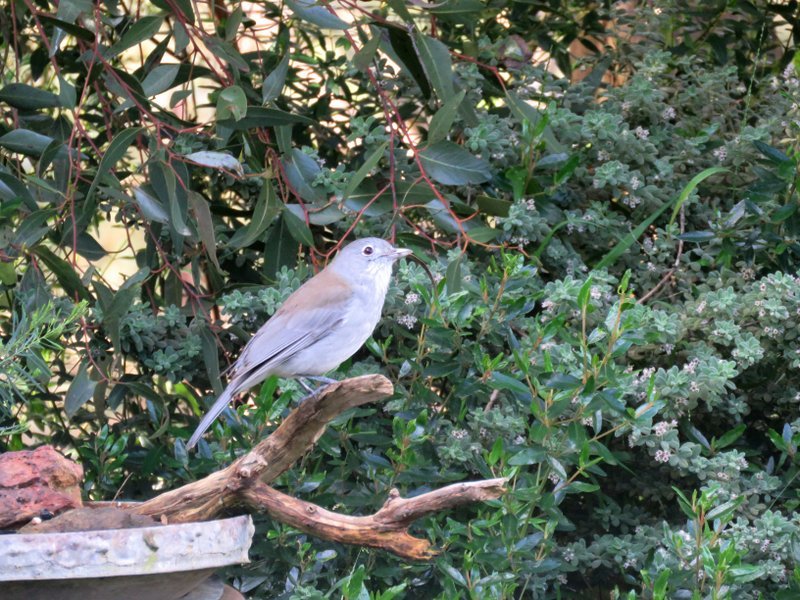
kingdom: Animalia
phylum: Chordata
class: Aves
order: Passeriformes
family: Pachycephalidae
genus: Colluricincla
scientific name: Colluricincla harmonica
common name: Grey shrikethrush
